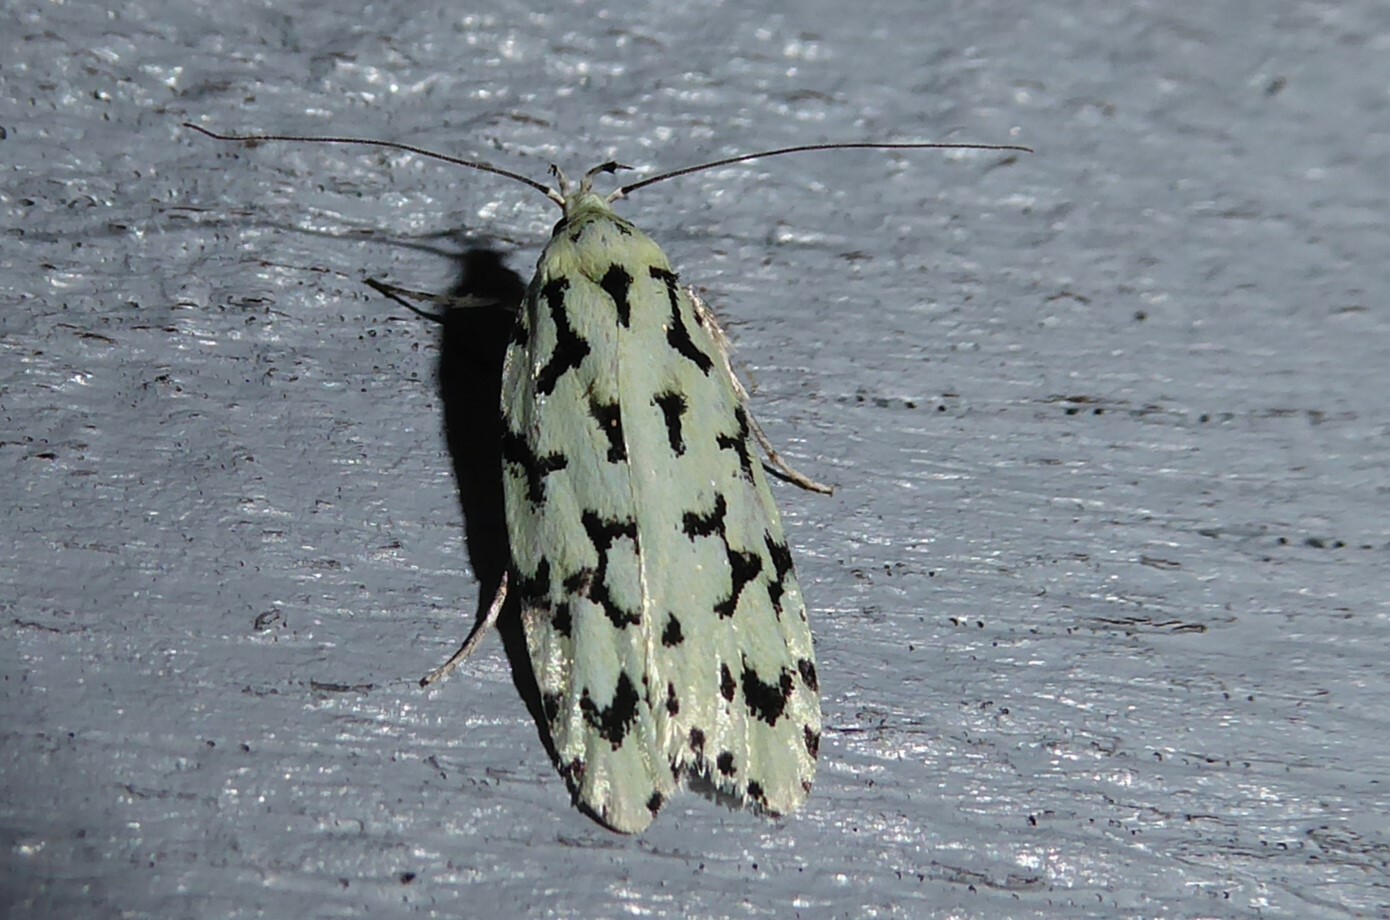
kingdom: Animalia
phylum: Arthropoda
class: Insecta
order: Lepidoptera
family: Oecophoridae
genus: Izatha
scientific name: Izatha huttoni
